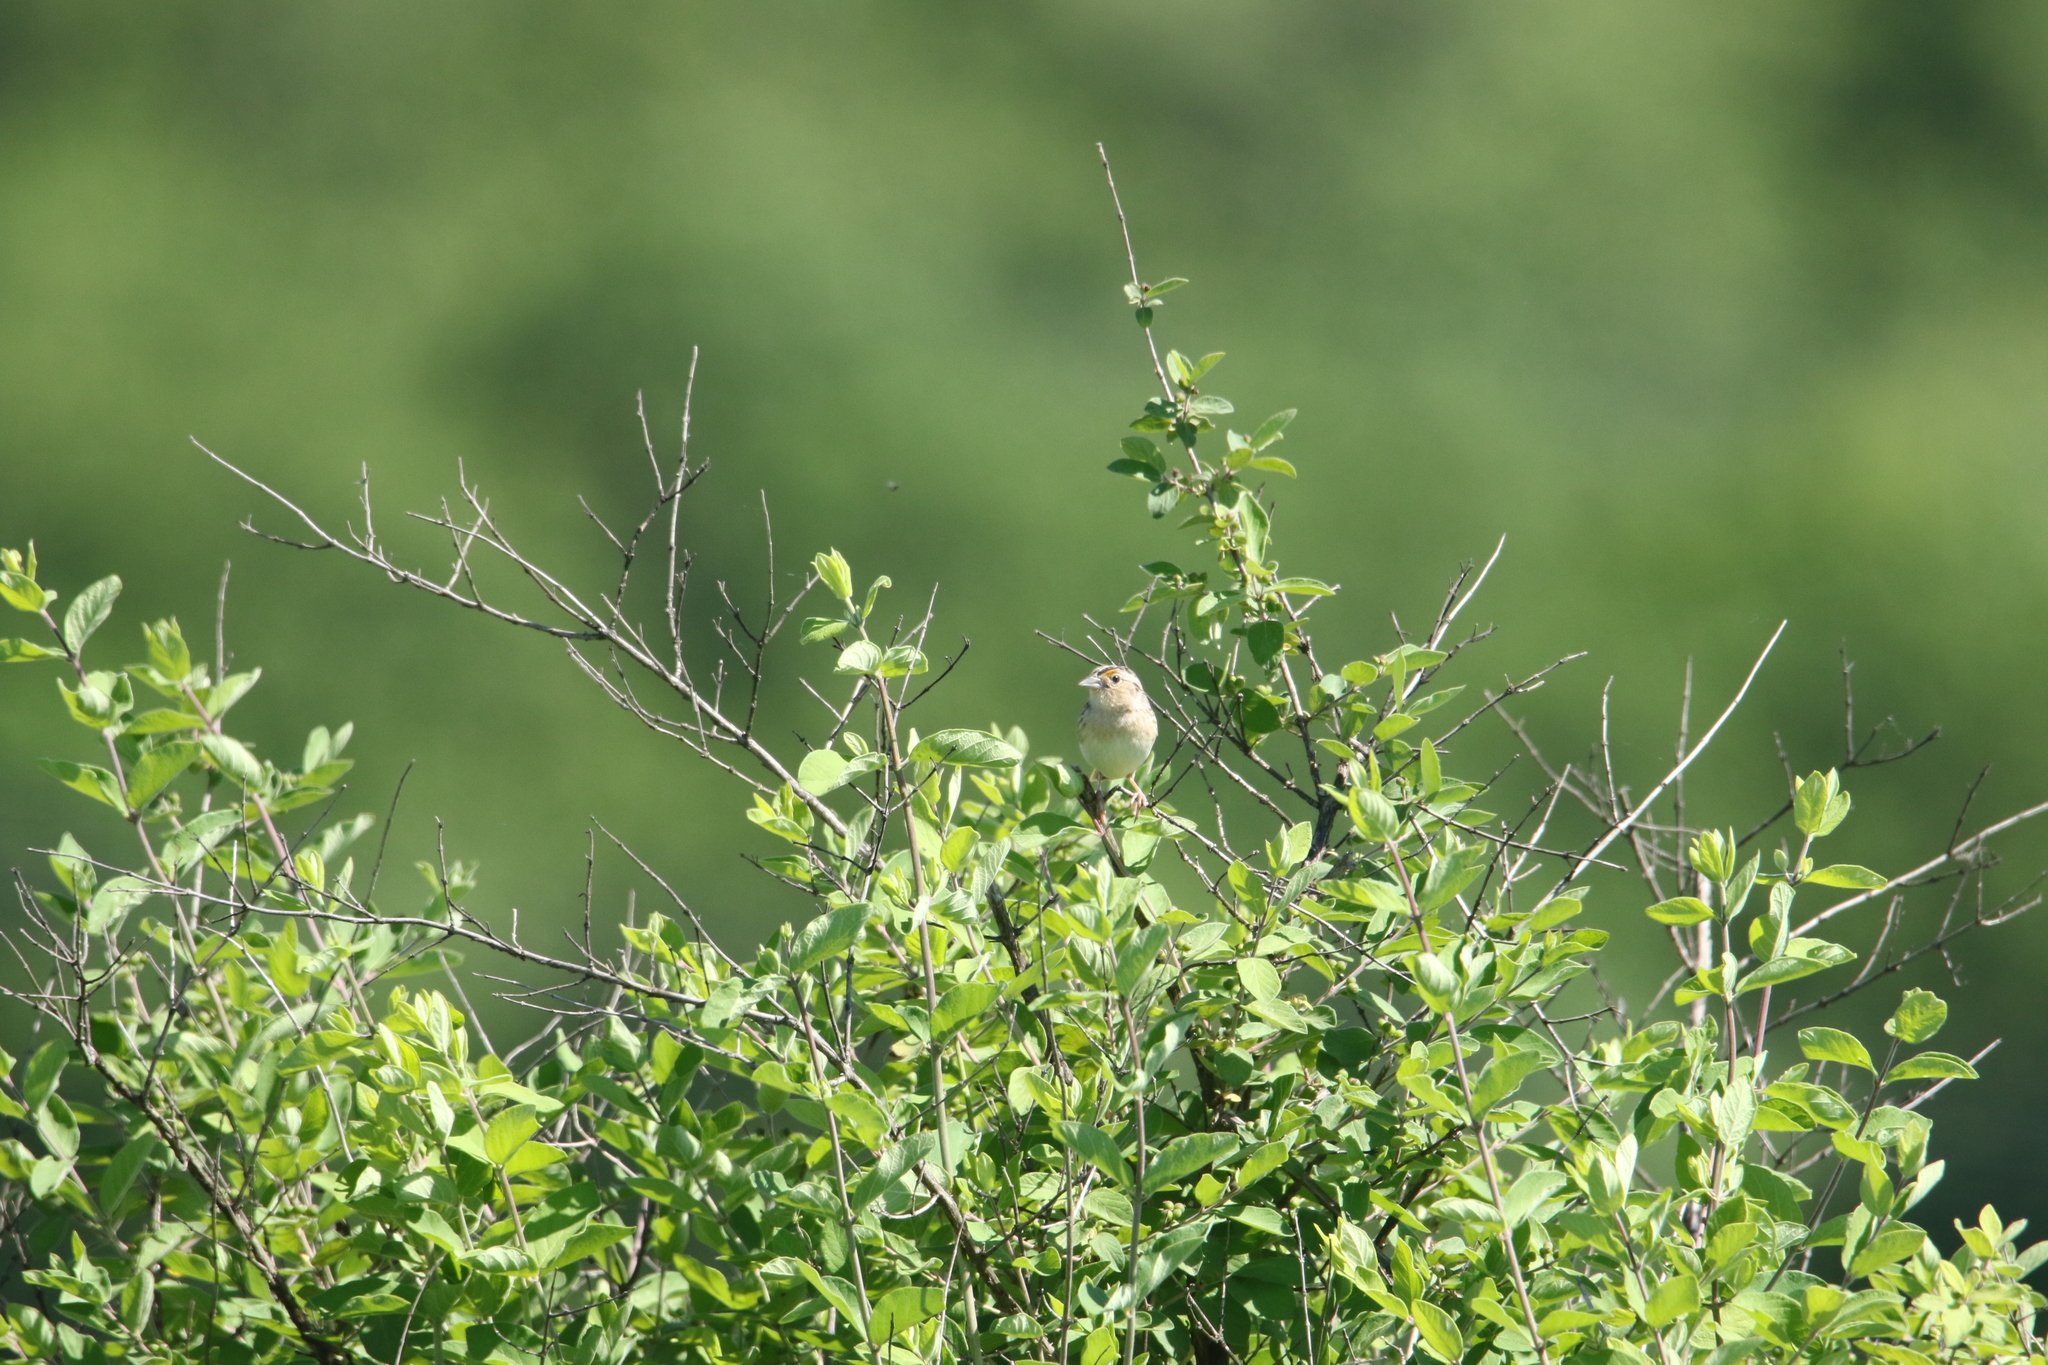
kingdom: Animalia
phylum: Chordata
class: Aves
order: Passeriformes
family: Passerellidae
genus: Ammodramus
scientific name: Ammodramus savannarum
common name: Grasshopper sparrow
